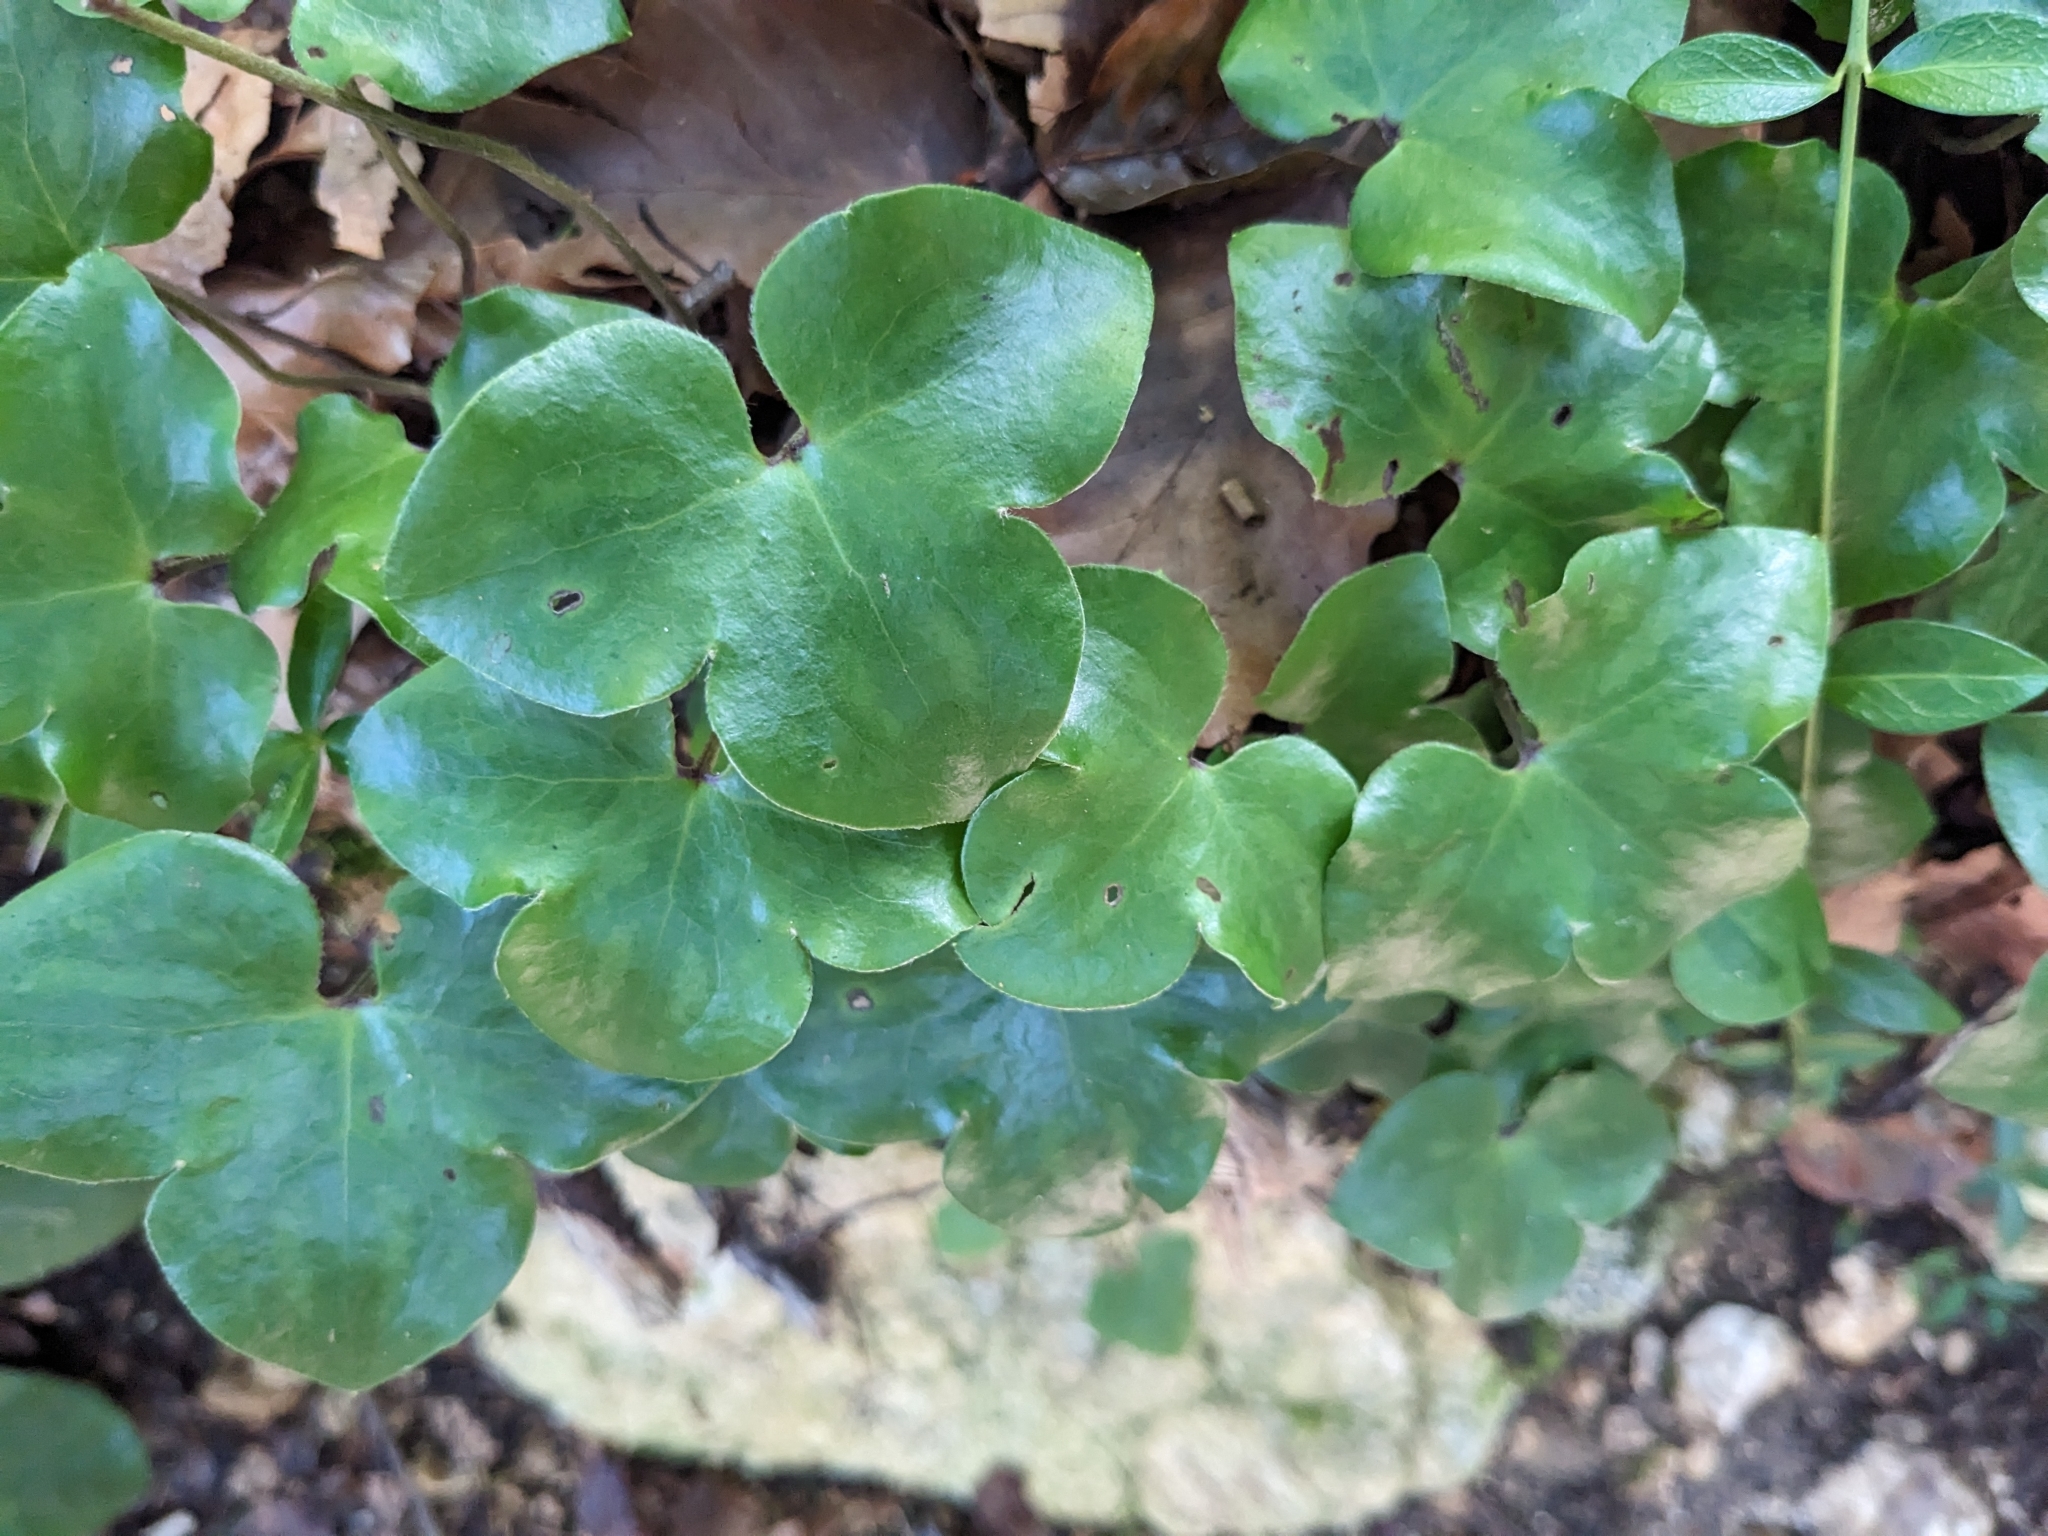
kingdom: Plantae
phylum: Tracheophyta
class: Magnoliopsida
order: Ranunculales
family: Ranunculaceae
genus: Hepatica
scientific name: Hepatica nobilis
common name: Liverleaf
